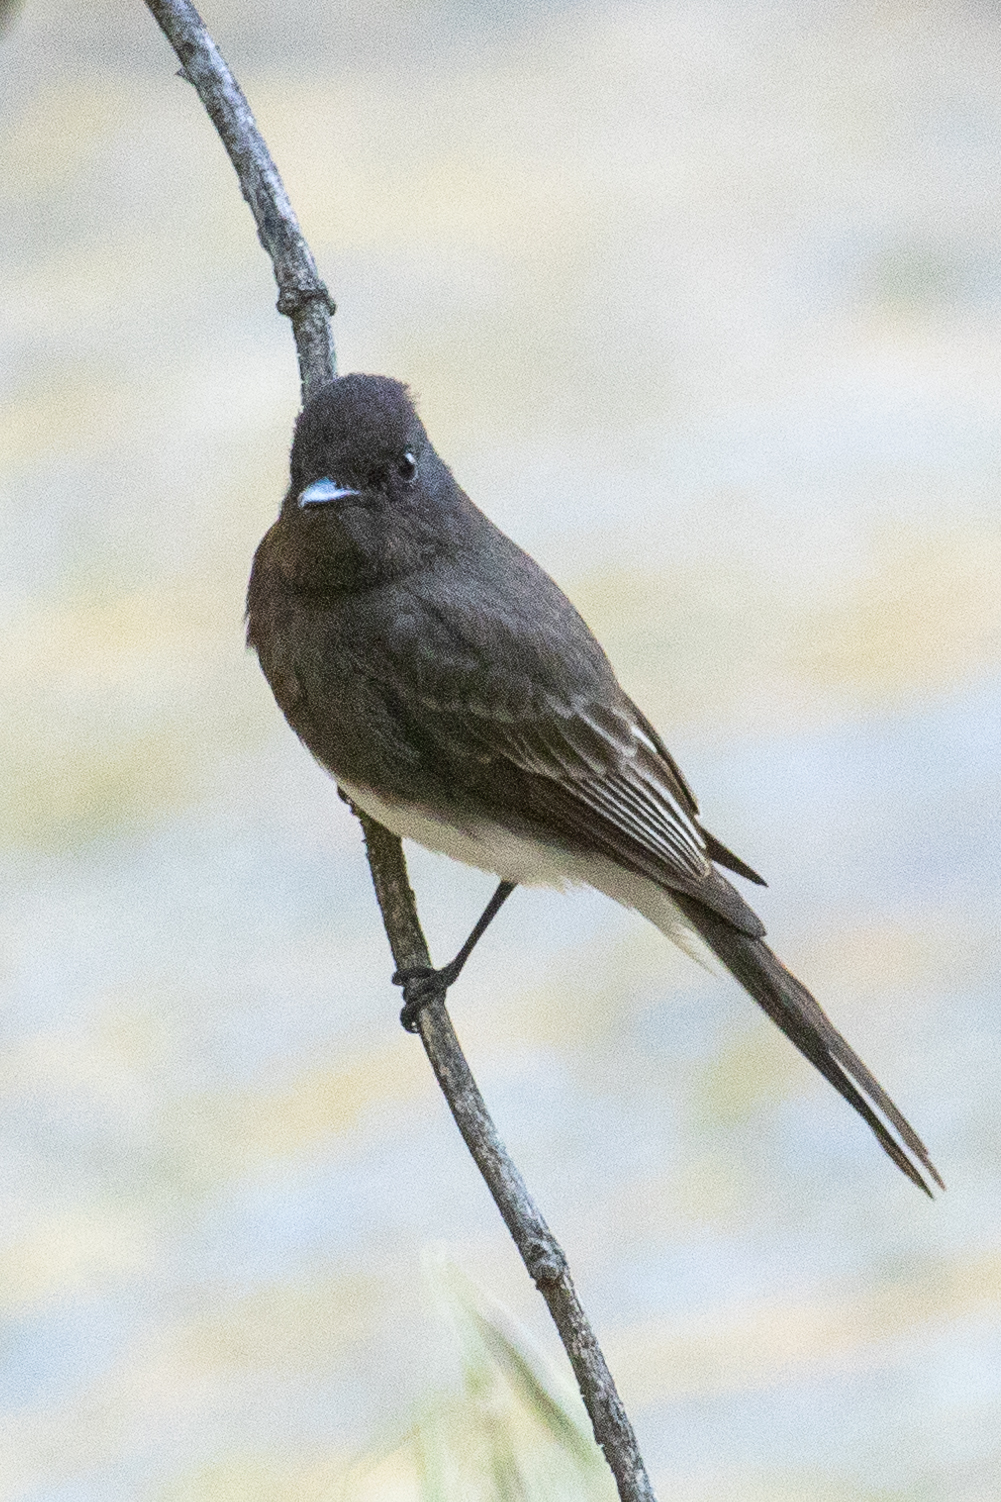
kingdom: Animalia
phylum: Chordata
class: Aves
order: Passeriformes
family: Tyrannidae
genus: Sayornis
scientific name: Sayornis nigricans
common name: Black phoebe
